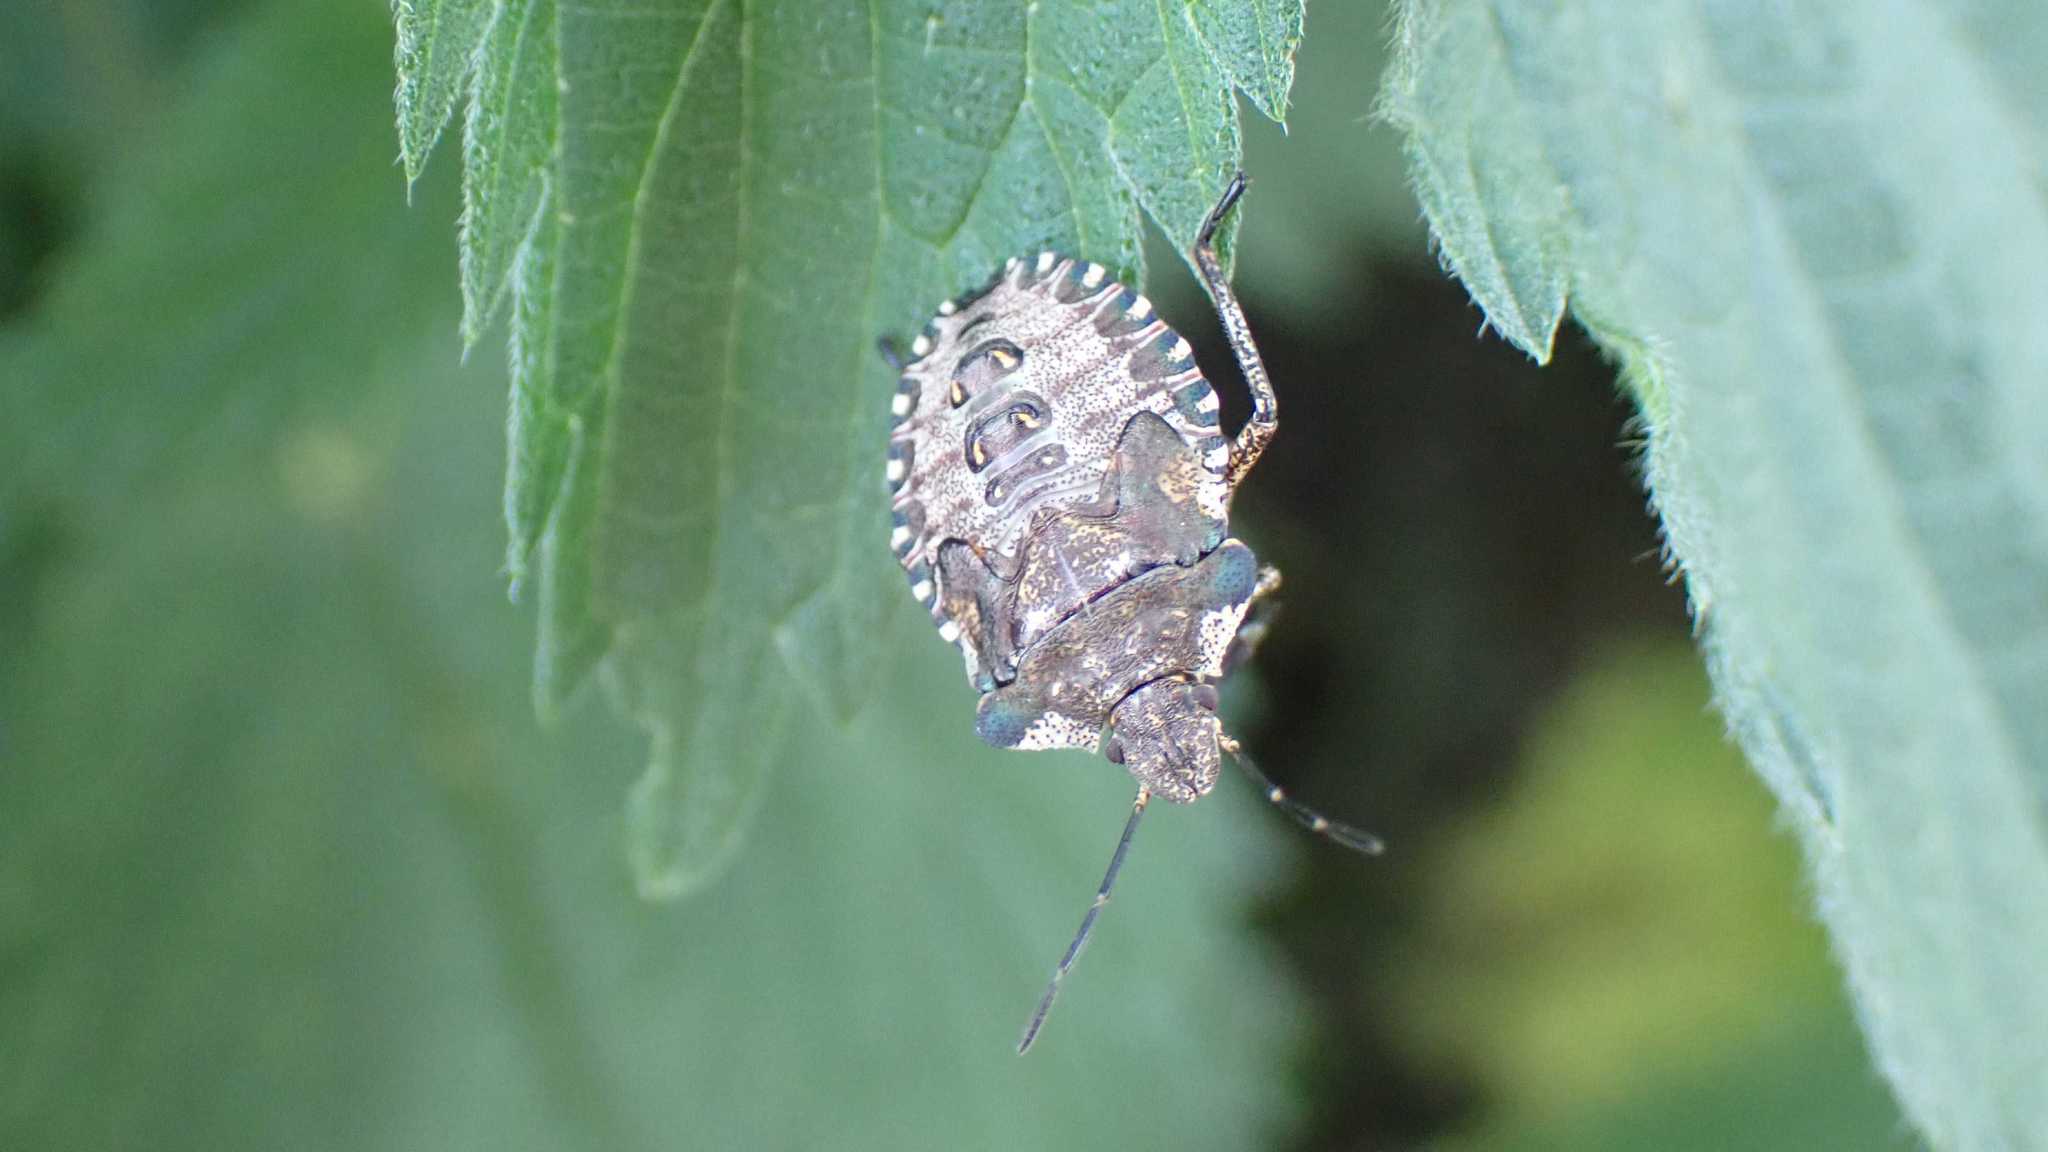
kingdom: Animalia
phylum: Arthropoda
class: Insecta
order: Hemiptera
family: Pentatomidae
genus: Pentatoma
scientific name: Pentatoma rufipes
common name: Forest bug
